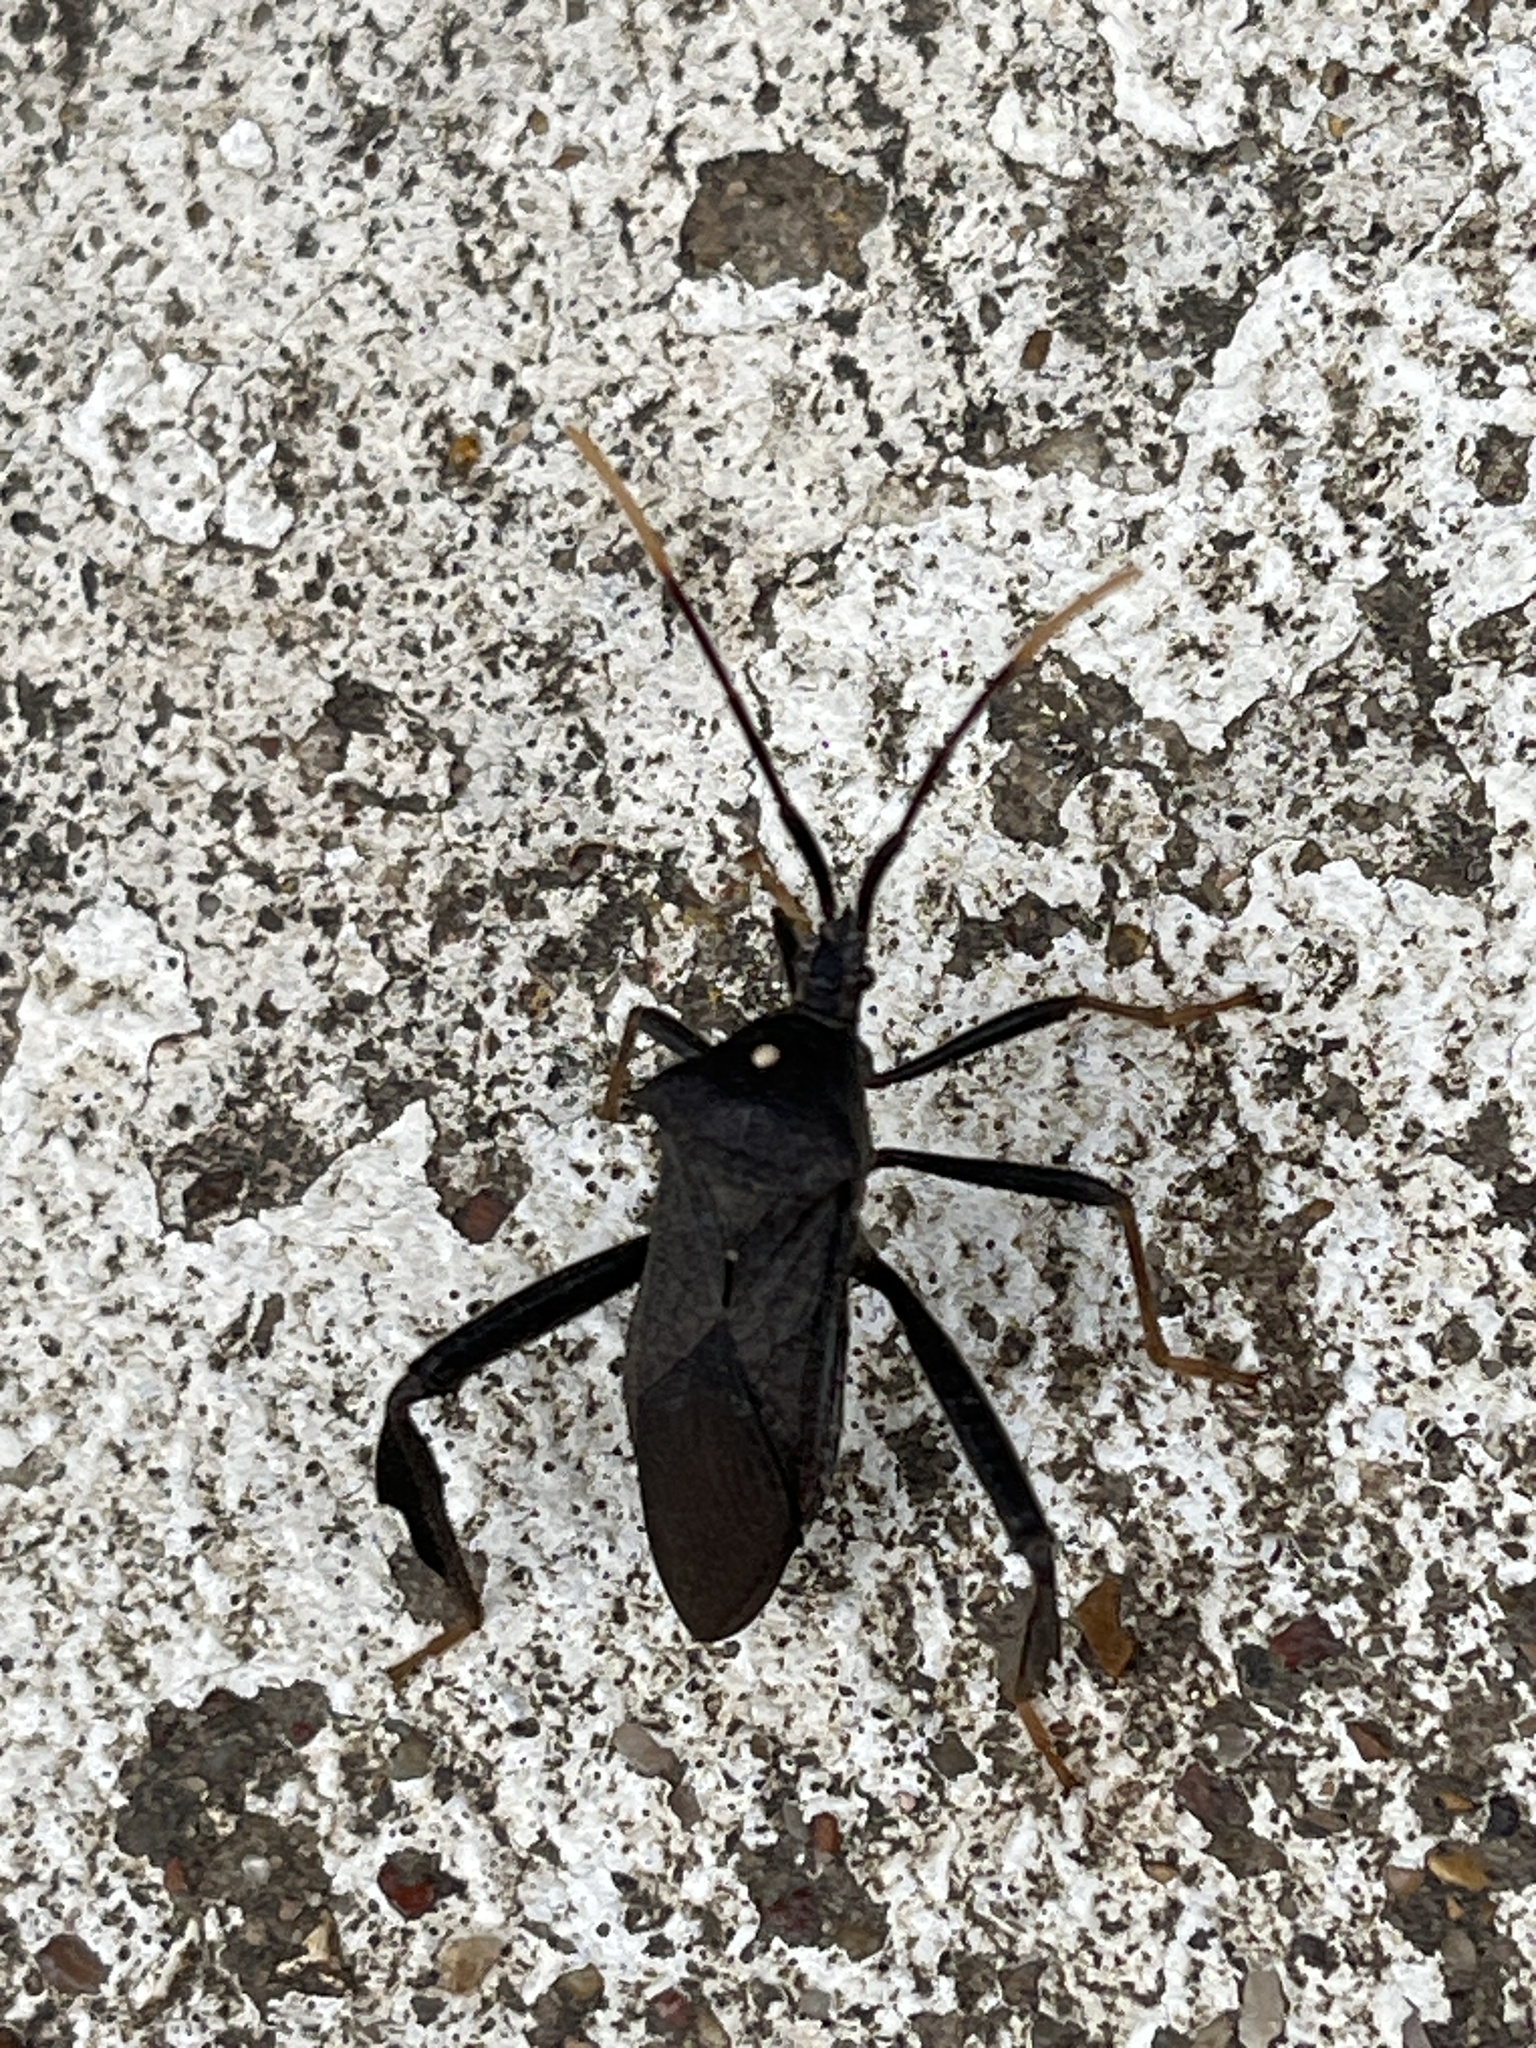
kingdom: Animalia
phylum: Arthropoda
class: Insecta
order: Hemiptera
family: Coreidae
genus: Acanthocephala
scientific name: Acanthocephala terminalis
